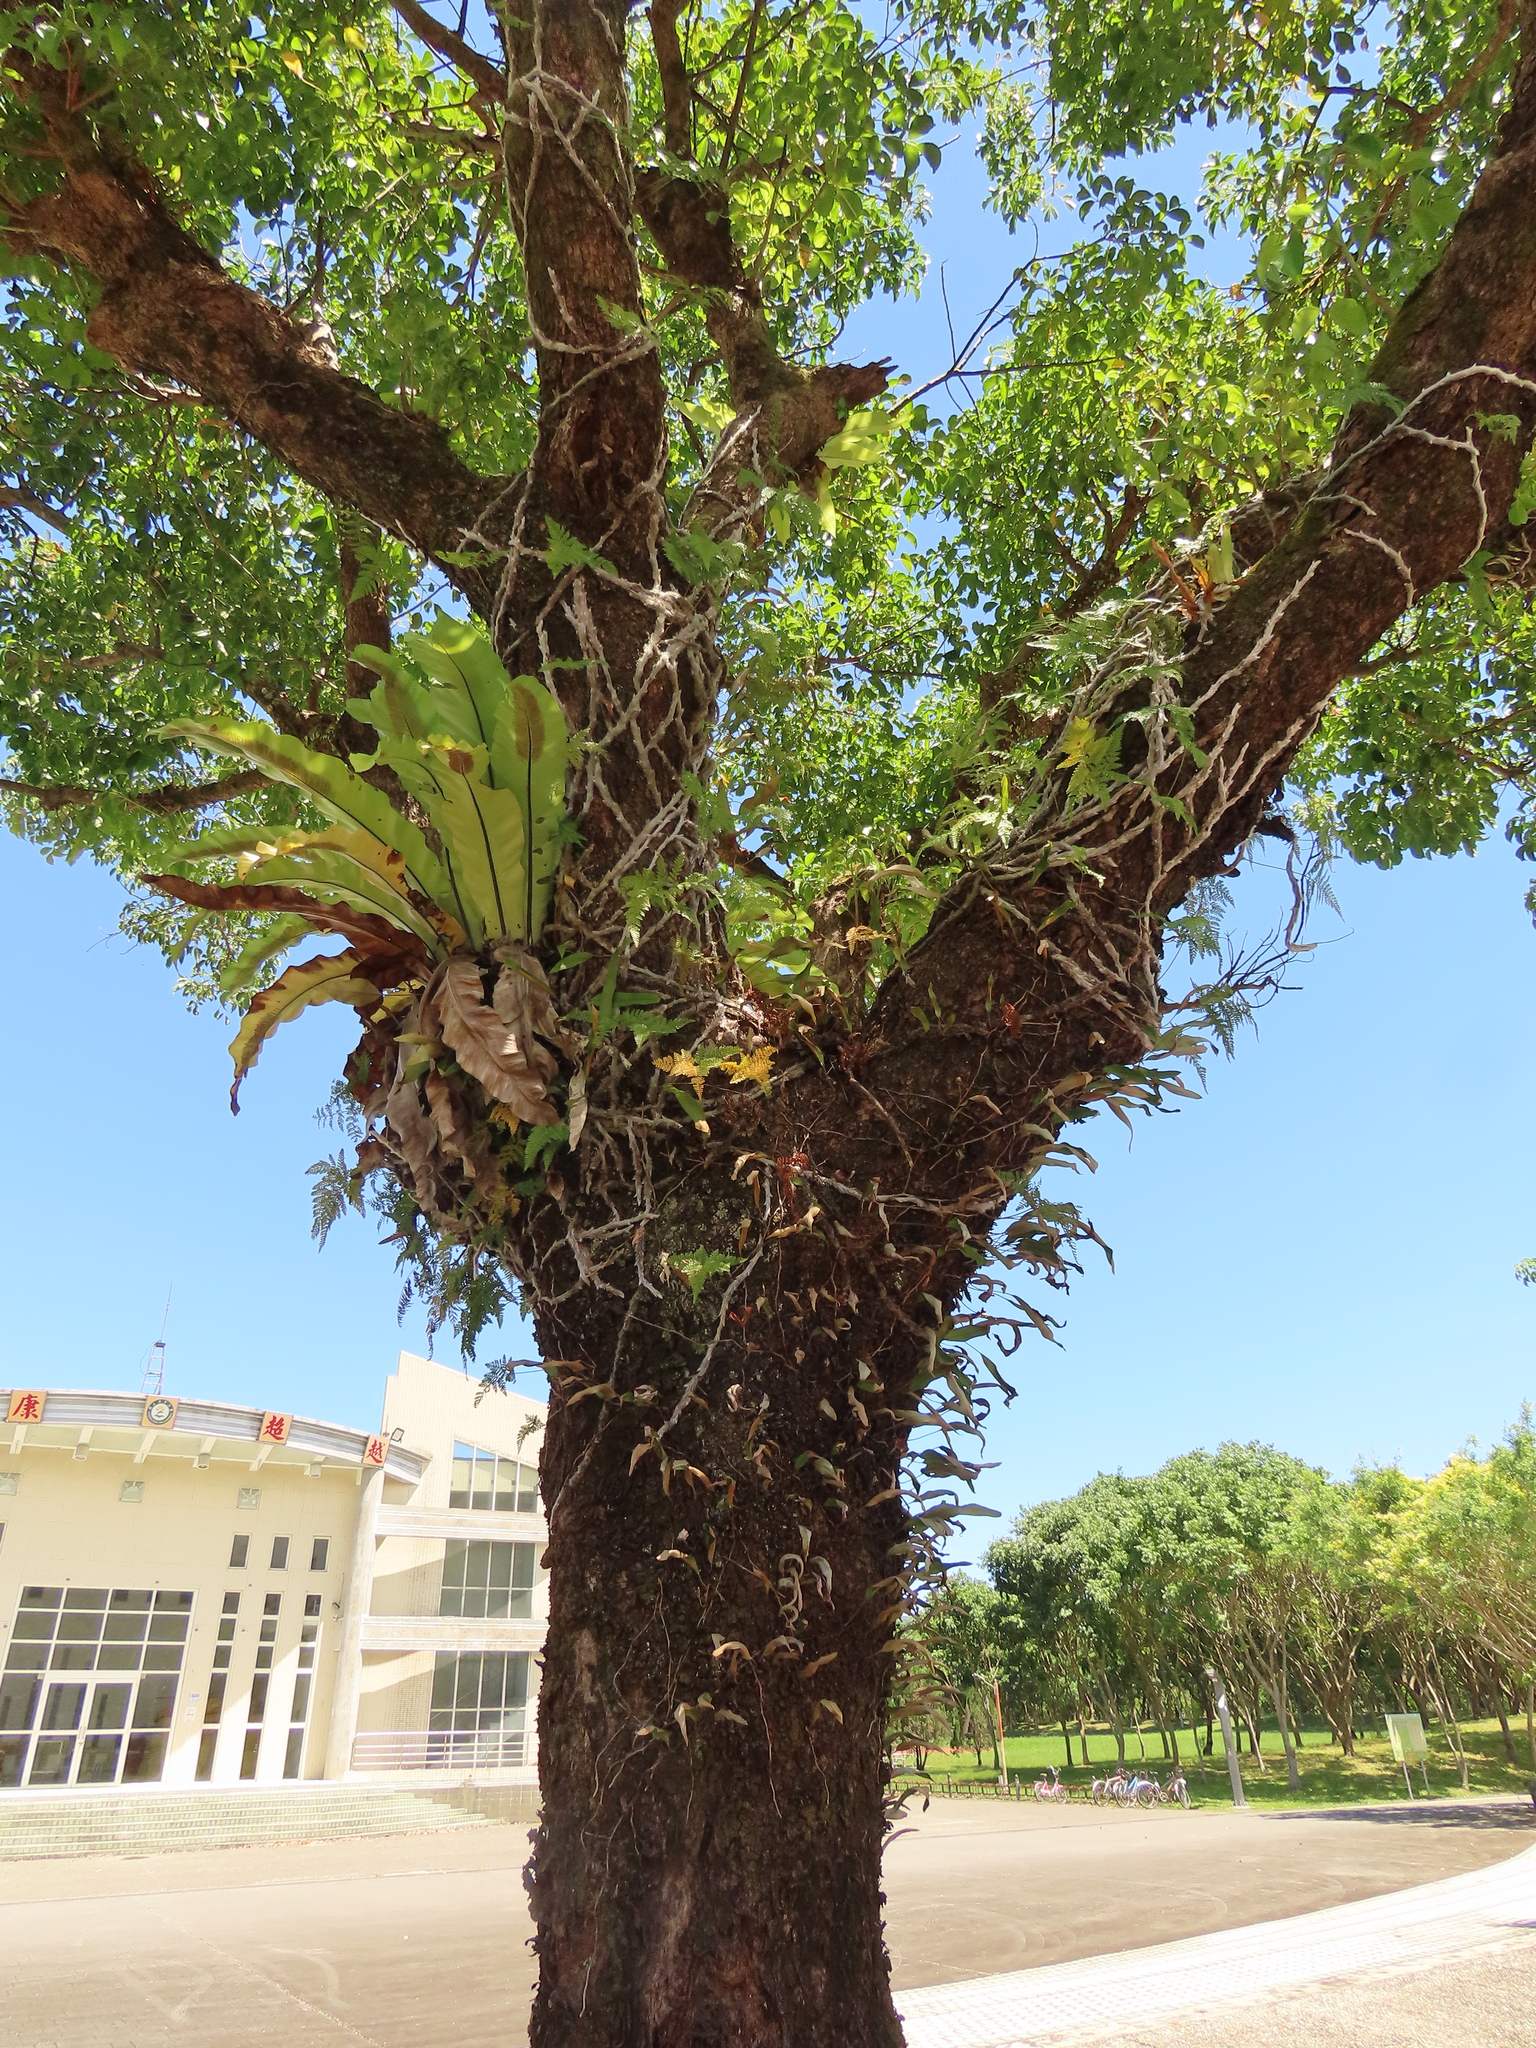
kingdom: Plantae
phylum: Tracheophyta
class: Polypodiopsida
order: Polypodiales
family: Polypodiaceae
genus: Pyrrosia
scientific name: Pyrrosia lingua
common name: Felt fern
